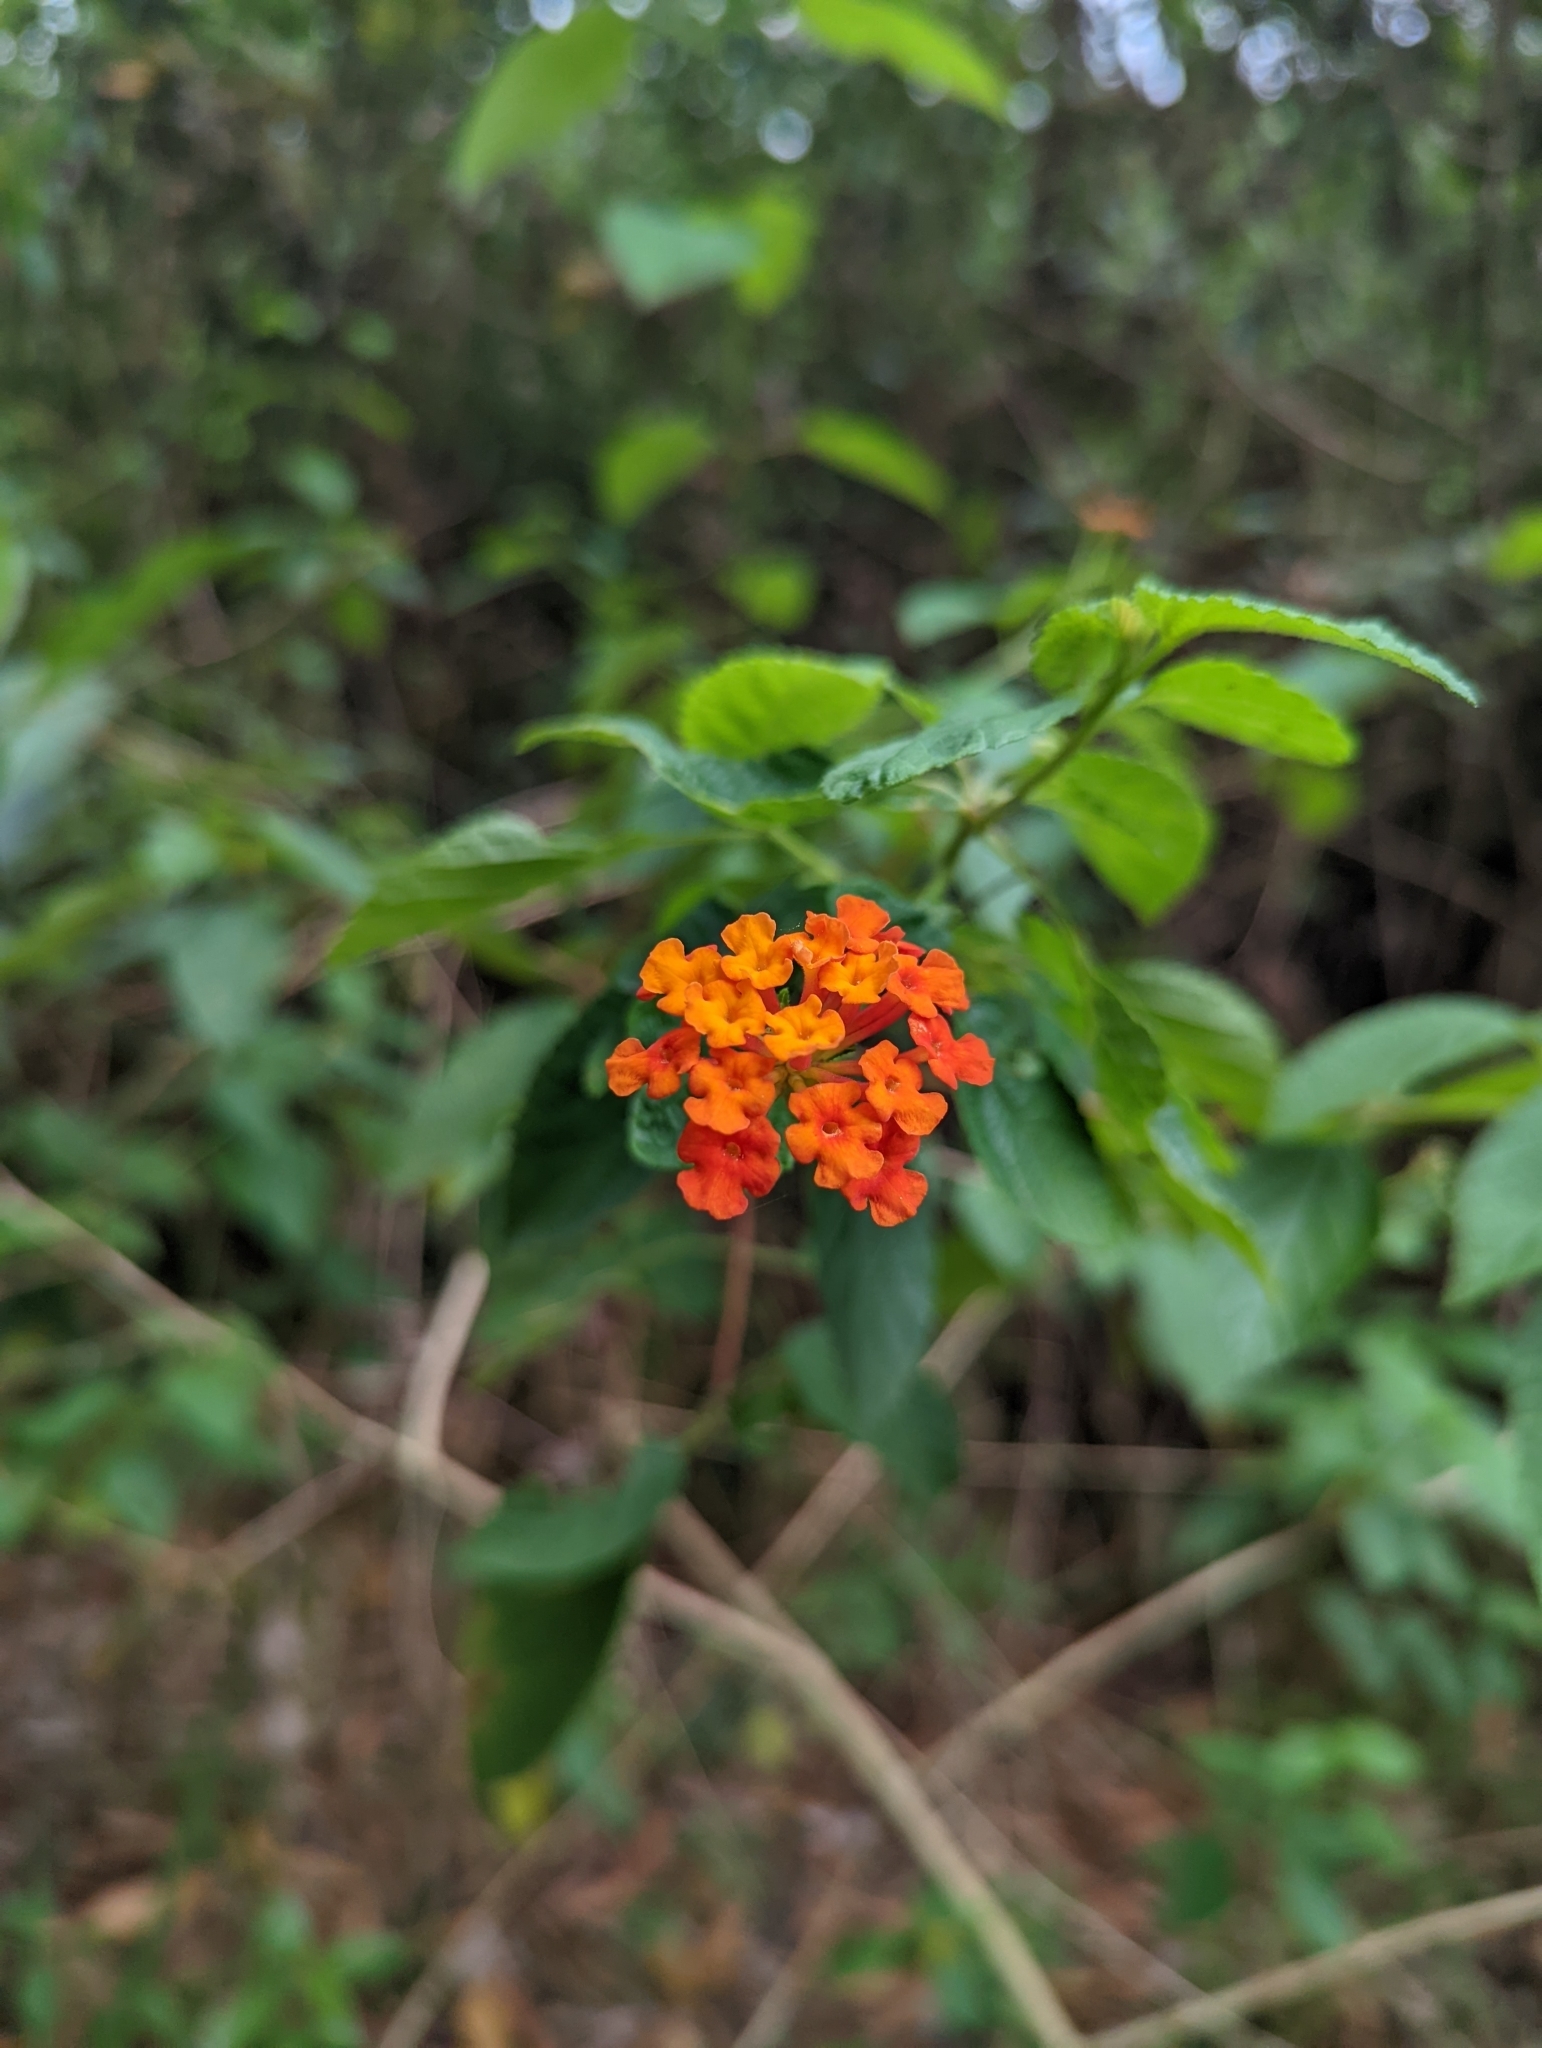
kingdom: Plantae
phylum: Tracheophyta
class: Magnoliopsida
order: Lamiales
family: Verbenaceae
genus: Lantana
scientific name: Lantana camara
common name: Lantana
